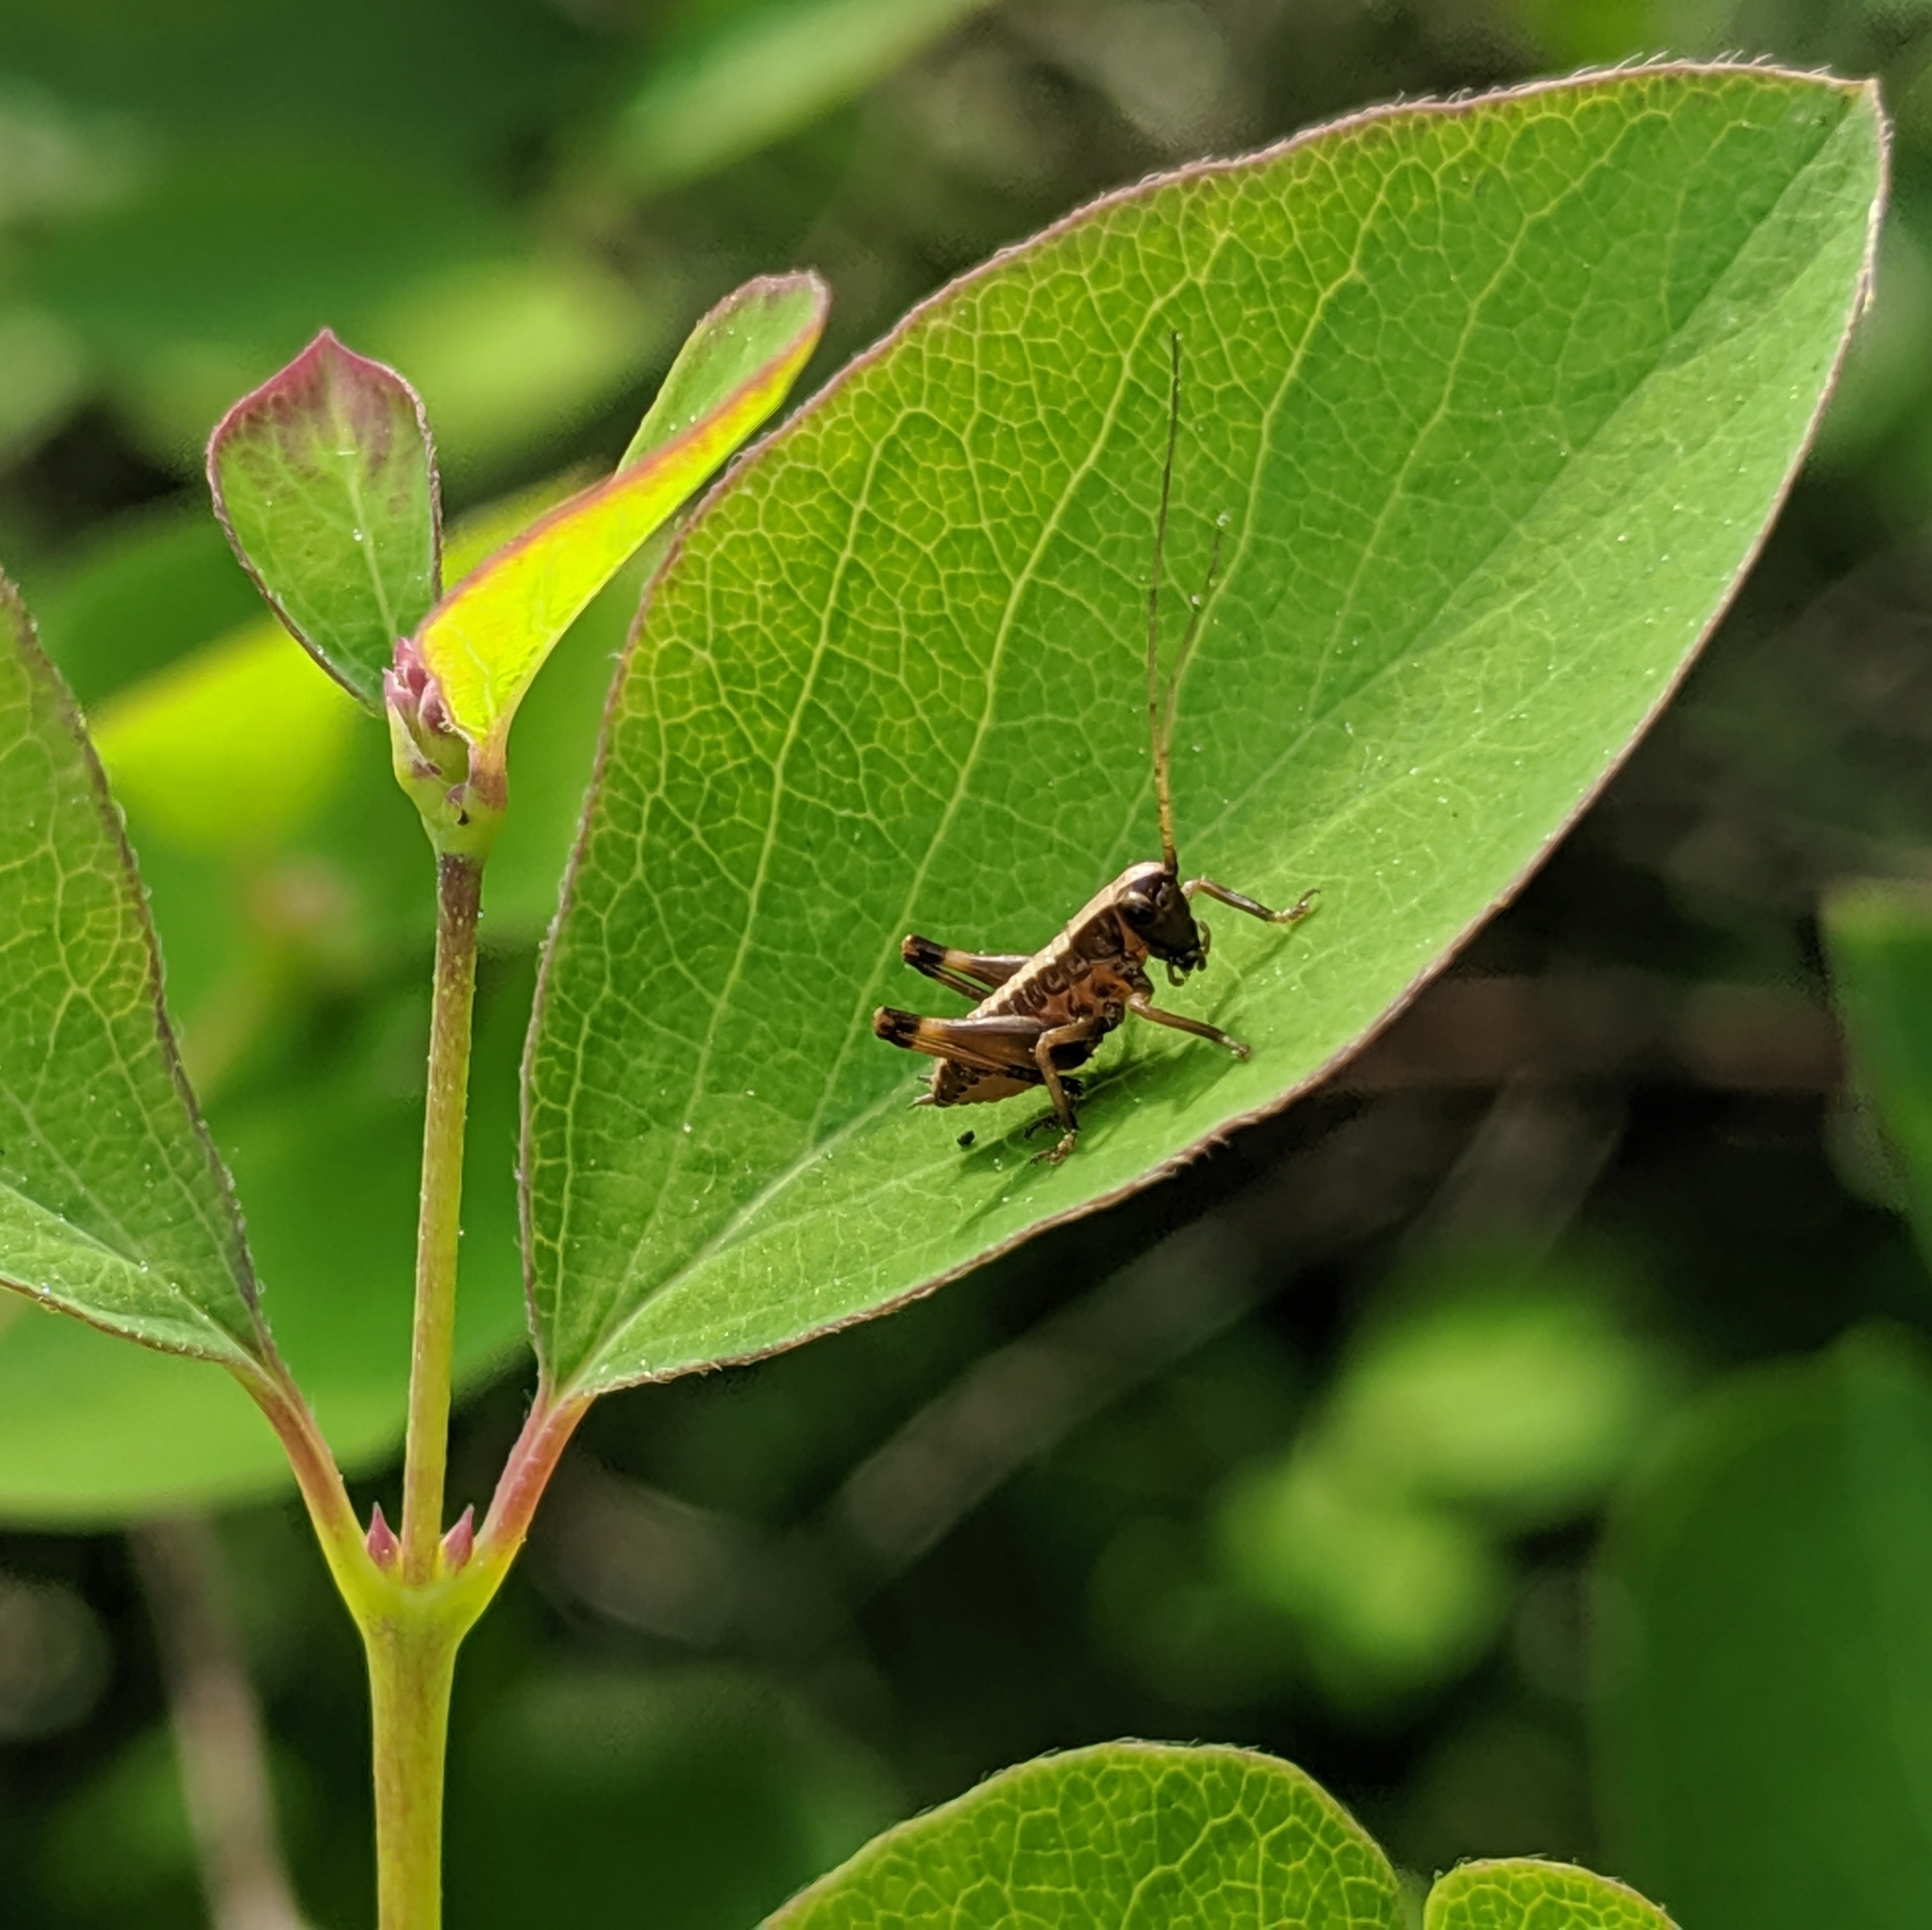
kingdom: Animalia
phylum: Arthropoda
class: Insecta
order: Orthoptera
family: Tettigoniidae
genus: Pholidoptera
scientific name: Pholidoptera griseoaptera
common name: Dark bush-cricket
